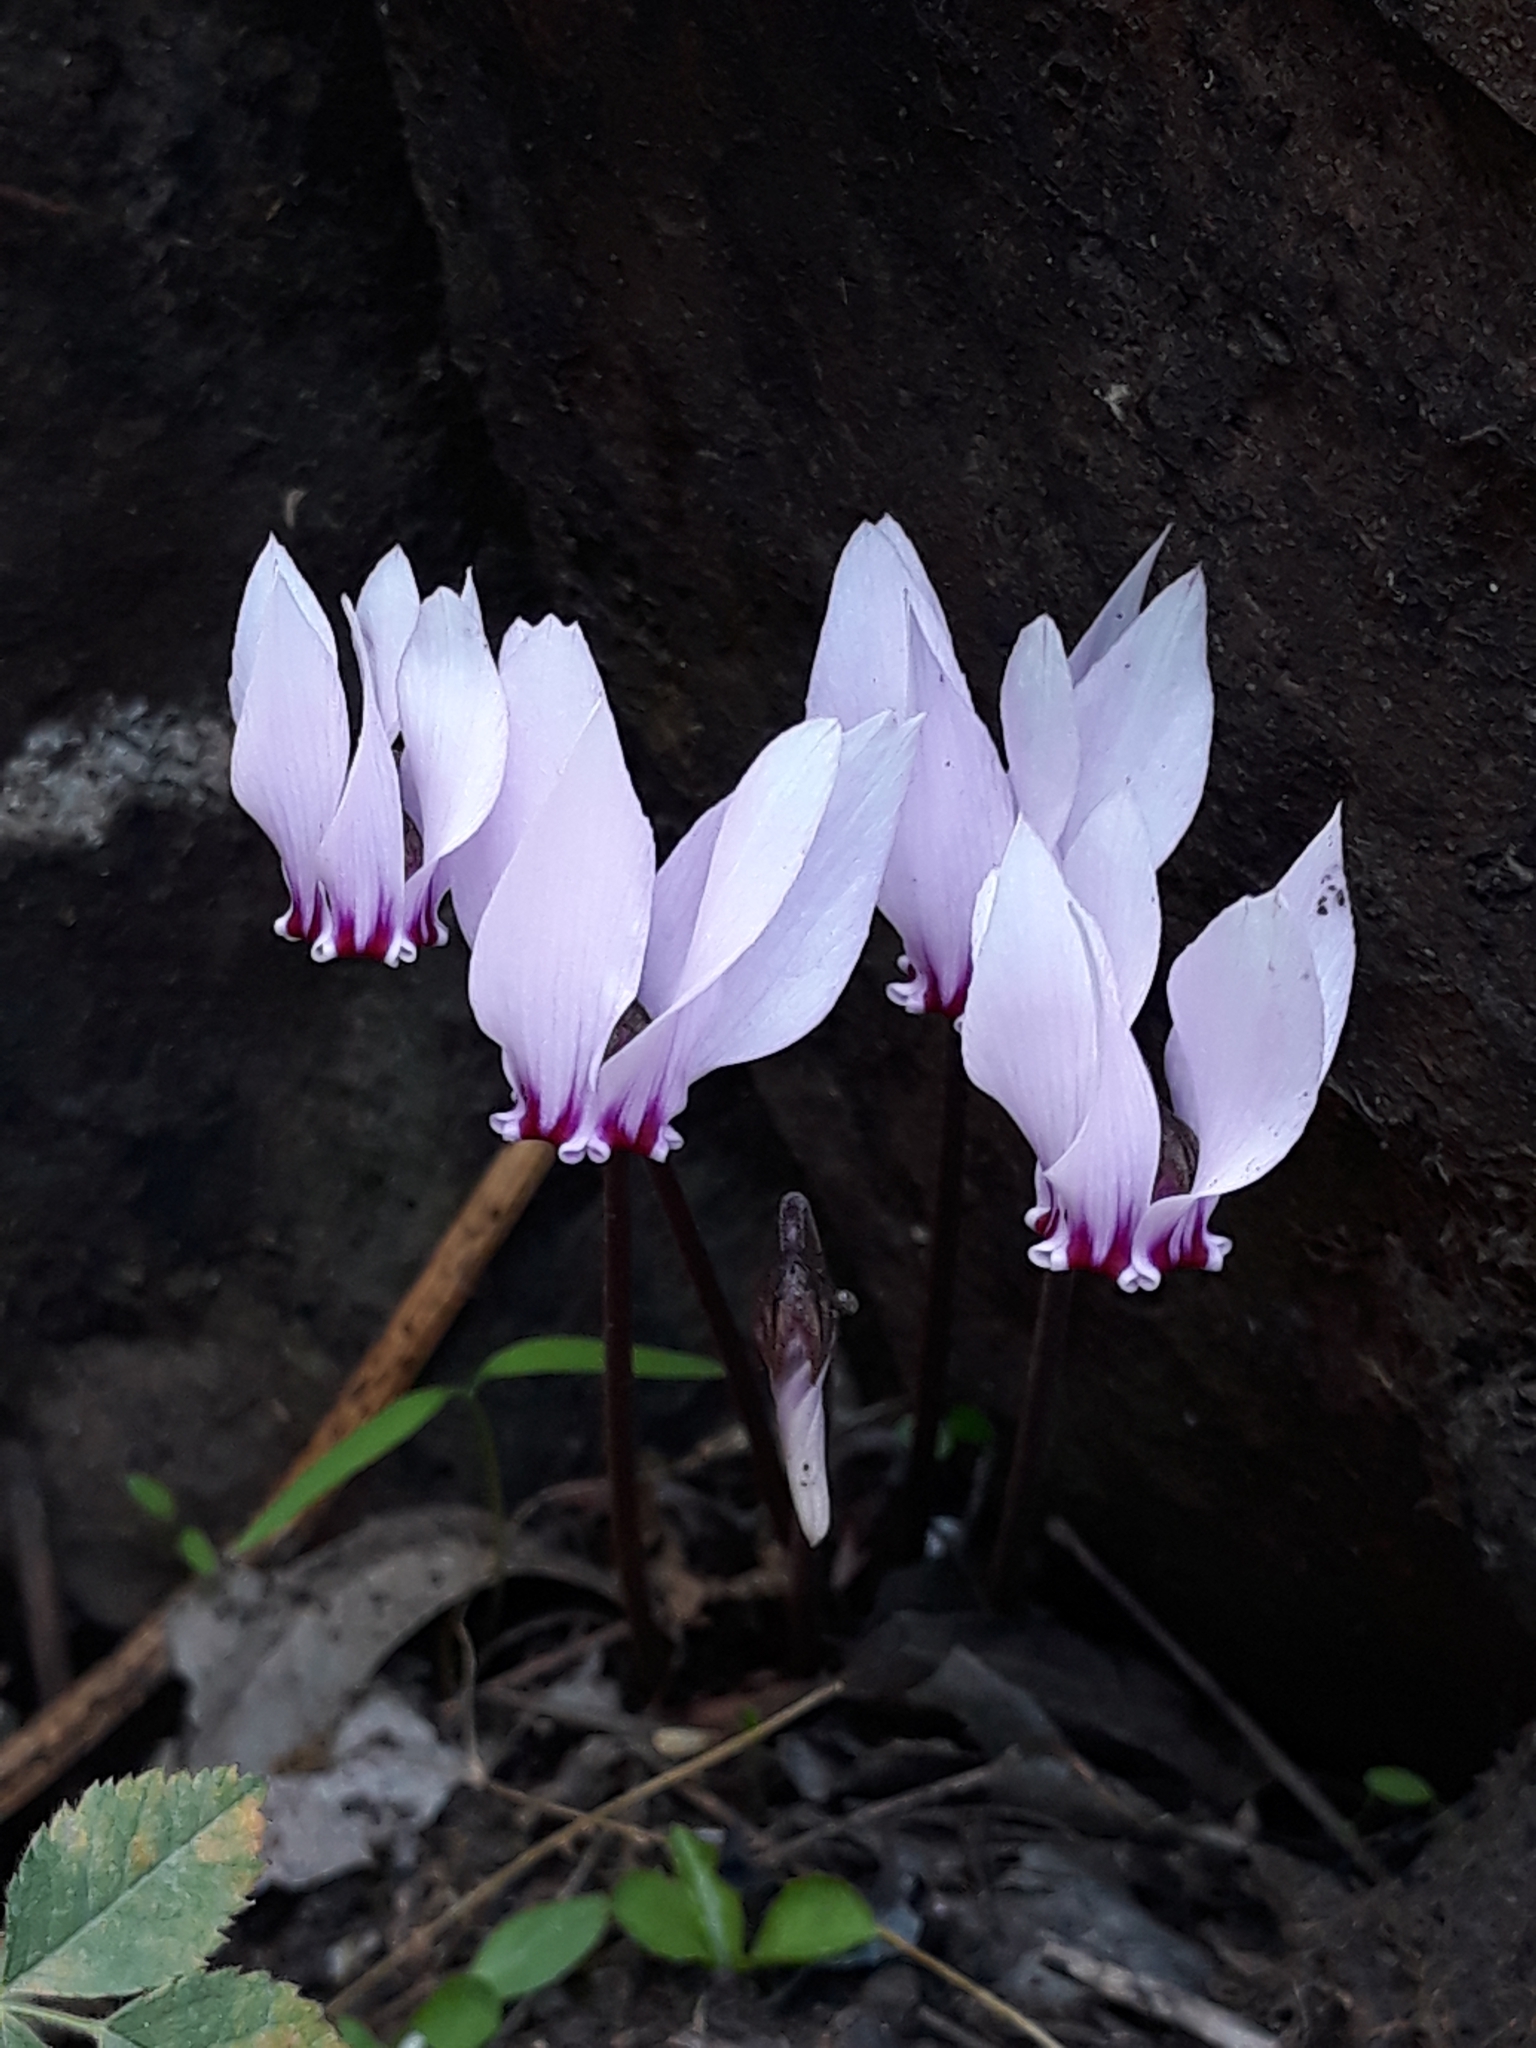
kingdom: Plantae
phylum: Tracheophyta
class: Magnoliopsida
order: Ericales
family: Primulaceae
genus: Cyclamen
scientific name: Cyclamen africanum
